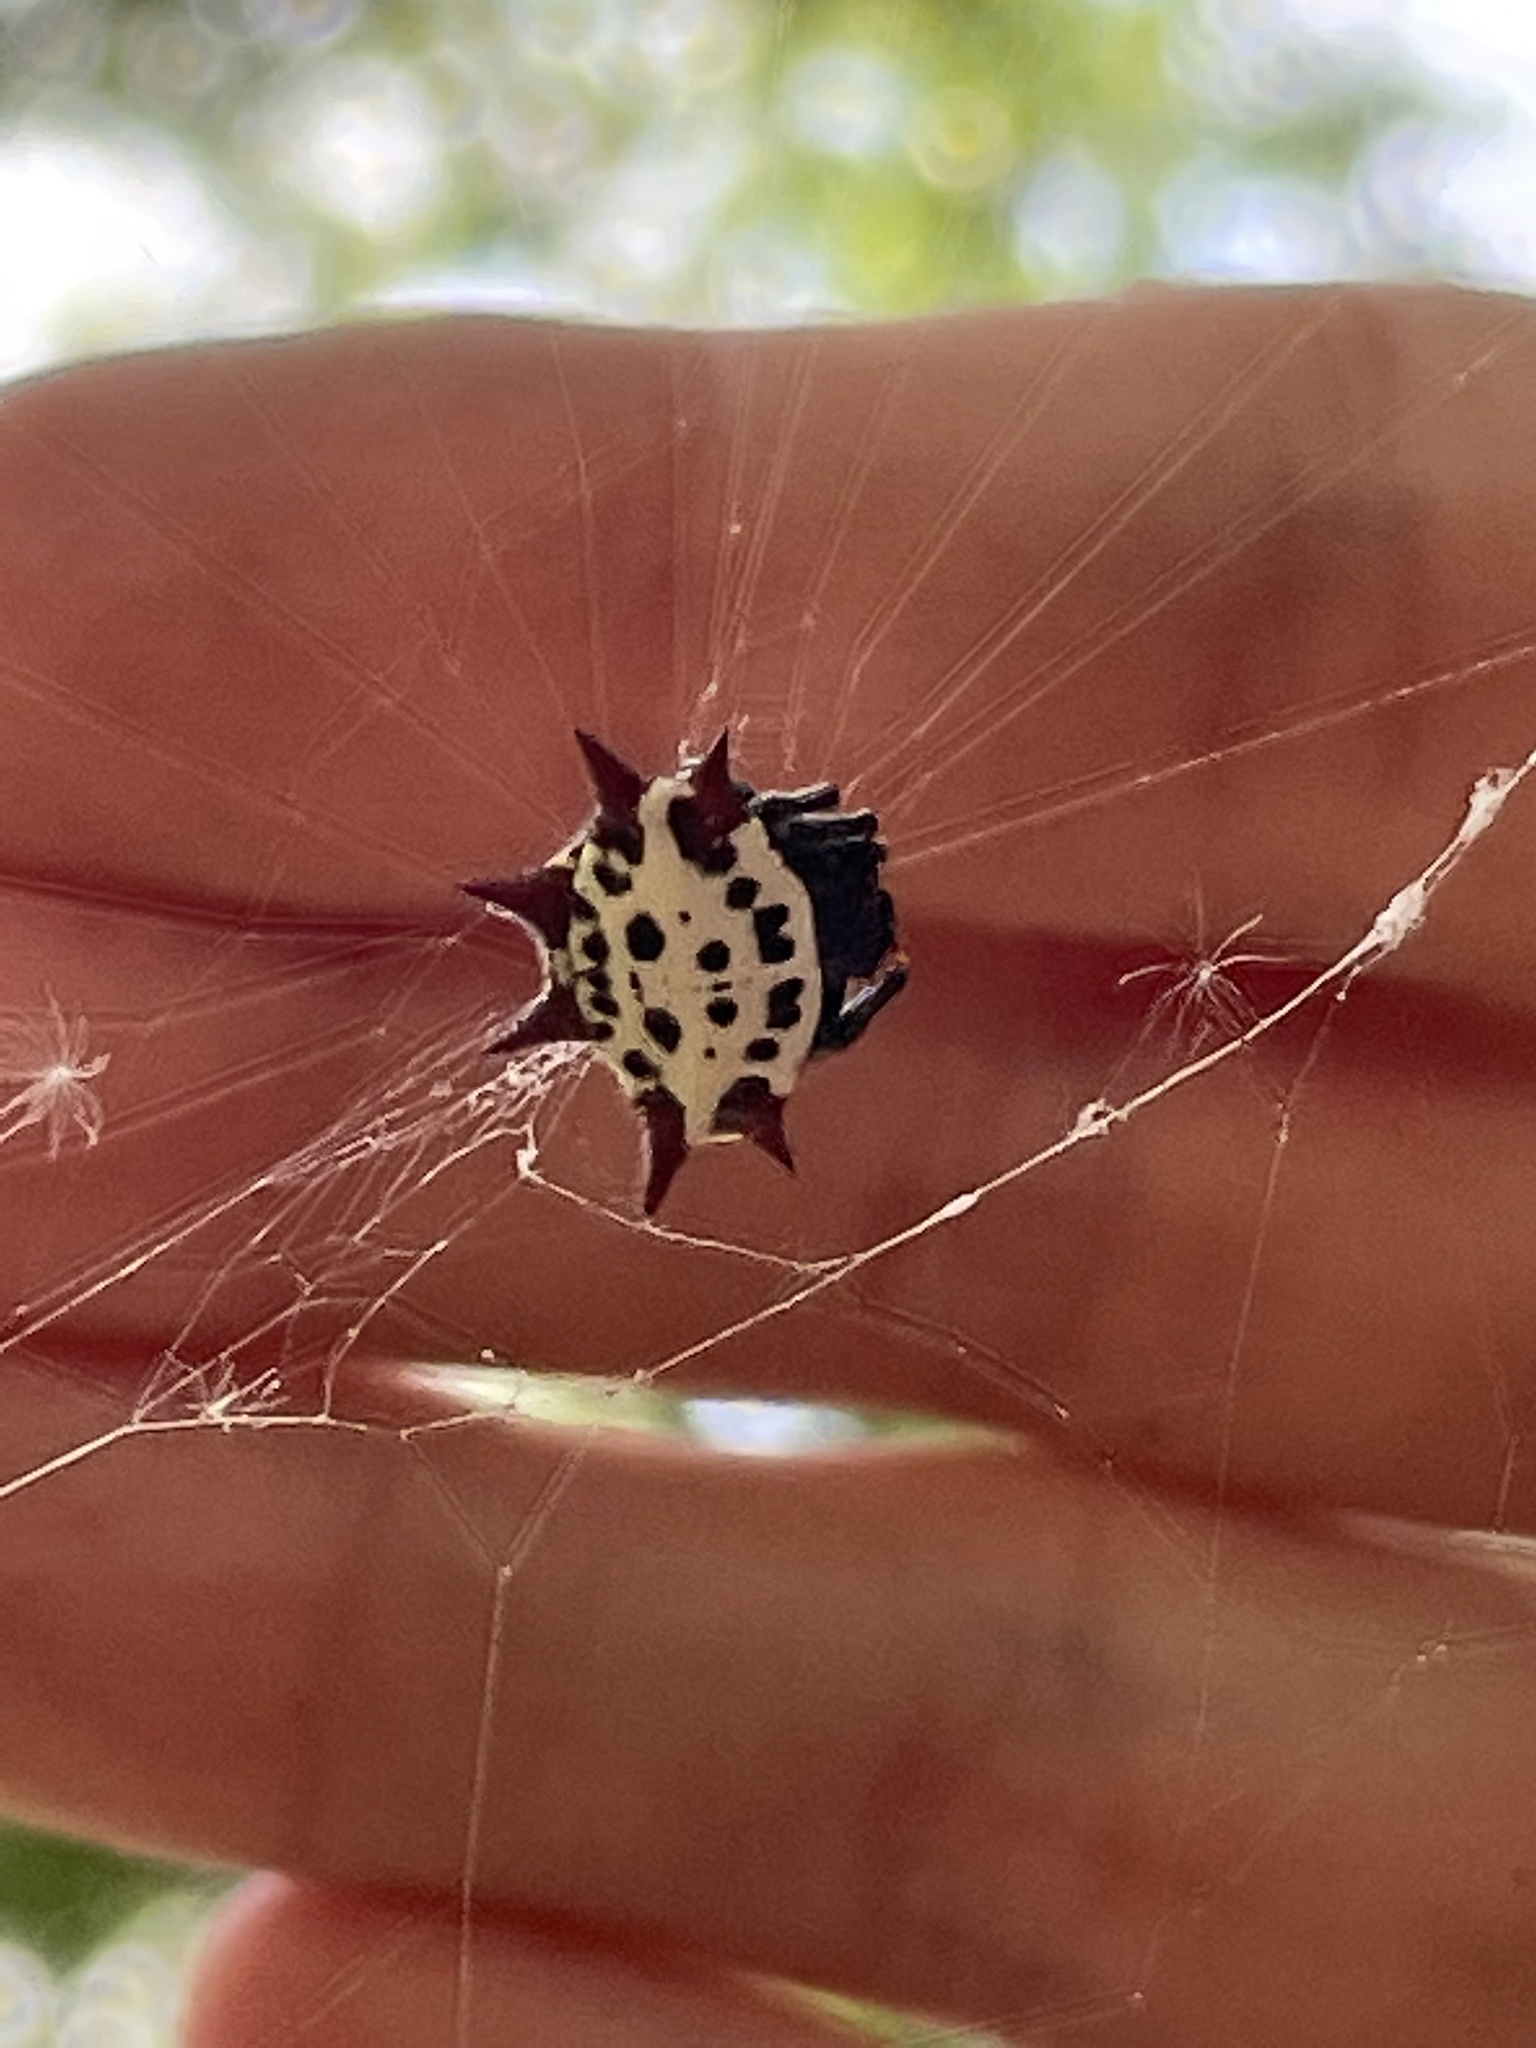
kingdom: Animalia
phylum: Arthropoda
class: Arachnida
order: Araneae
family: Araneidae
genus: Gasteracantha
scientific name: Gasteracantha cancriformis
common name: Orb weavers
